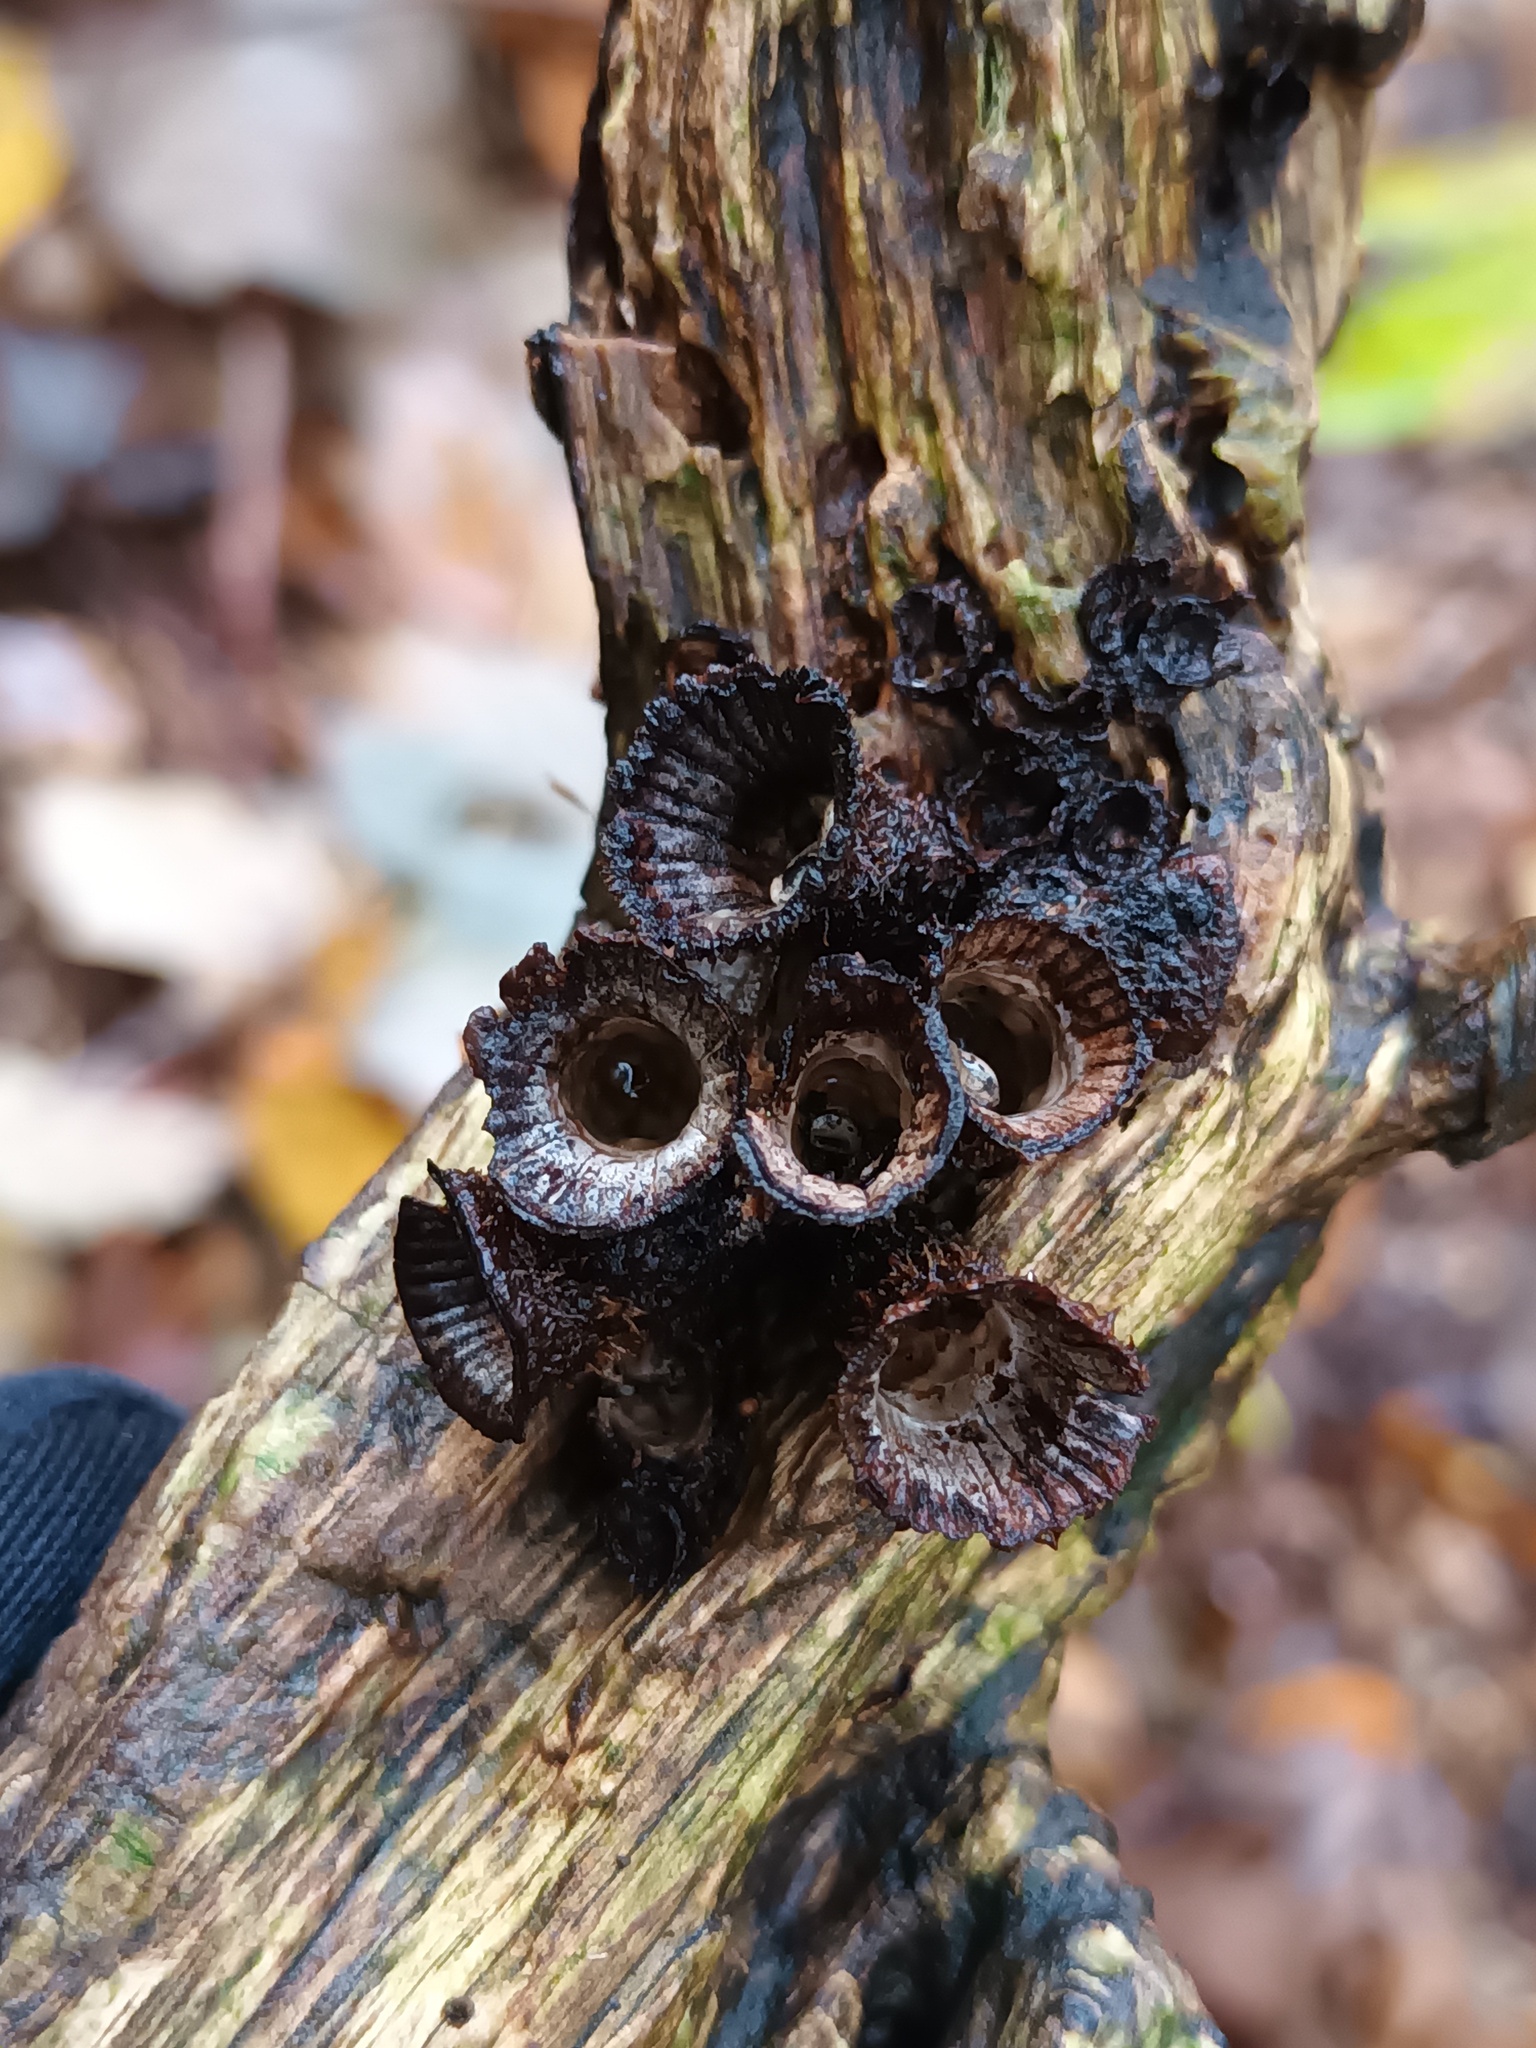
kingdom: Fungi
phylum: Basidiomycota
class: Agaricomycetes
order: Agaricales
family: Agaricaceae
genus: Cyathus
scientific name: Cyathus striatus
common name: Fluted bird's nest
